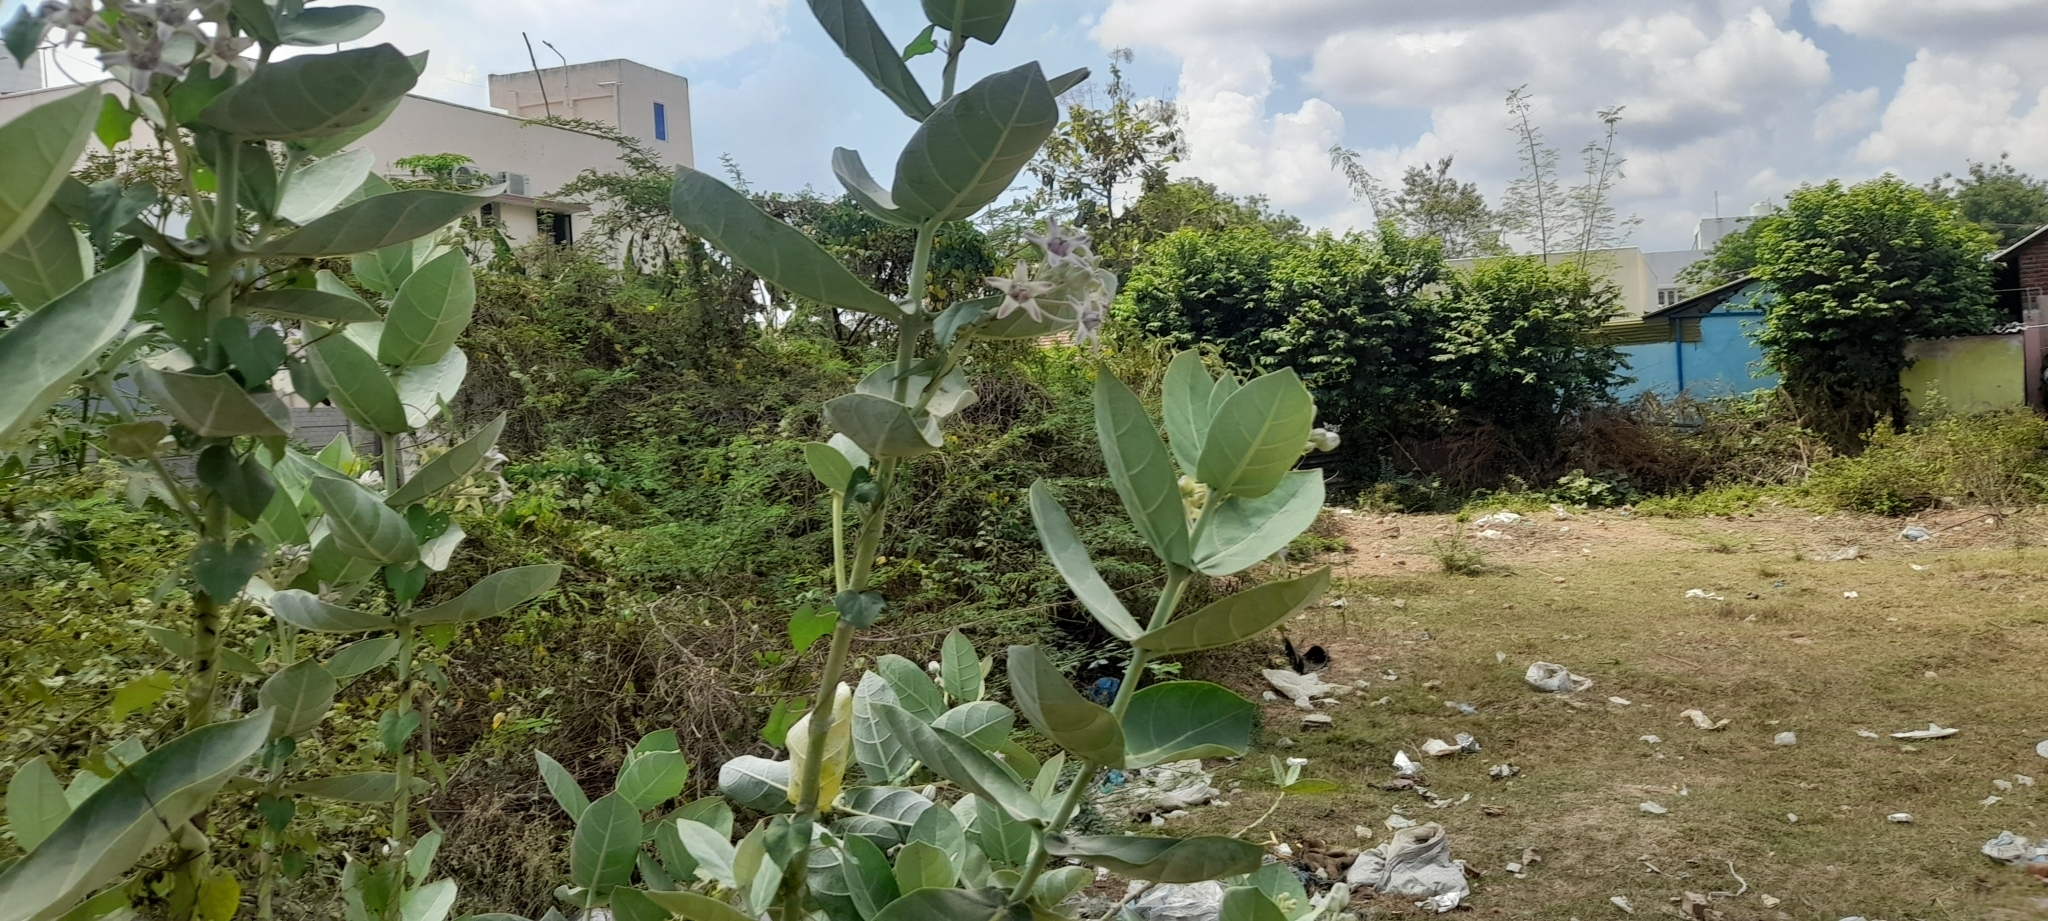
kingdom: Plantae
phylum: Tracheophyta
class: Magnoliopsida
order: Gentianales
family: Apocynaceae
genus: Calotropis
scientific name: Calotropis gigantea
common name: Crown flower
